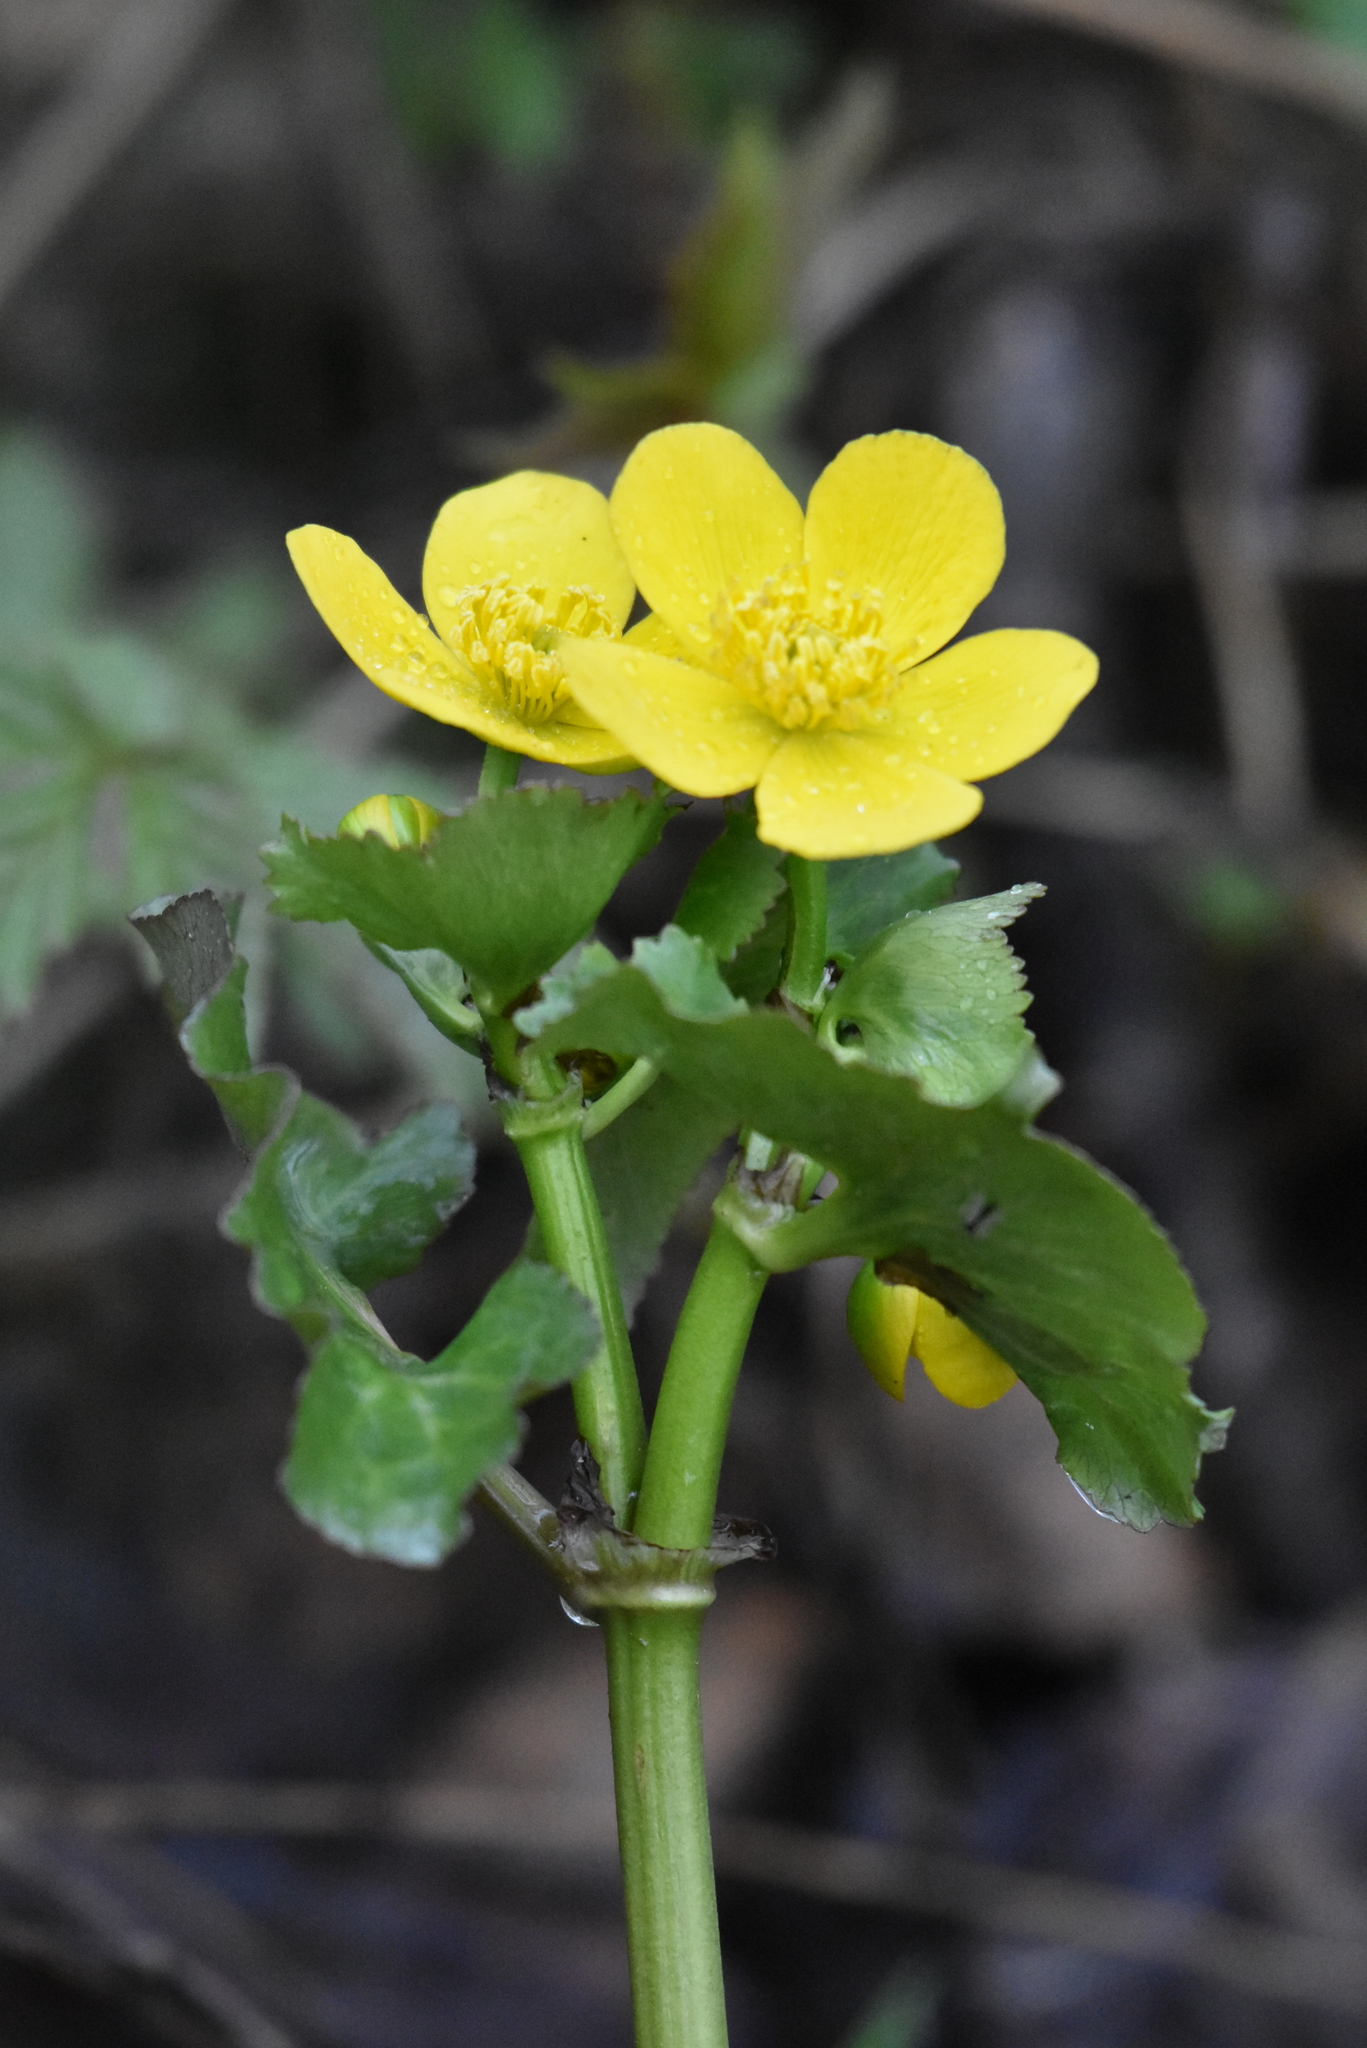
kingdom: Plantae
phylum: Tracheophyta
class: Magnoliopsida
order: Ranunculales
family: Ranunculaceae
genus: Caltha
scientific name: Caltha palustris
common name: Marsh marigold
